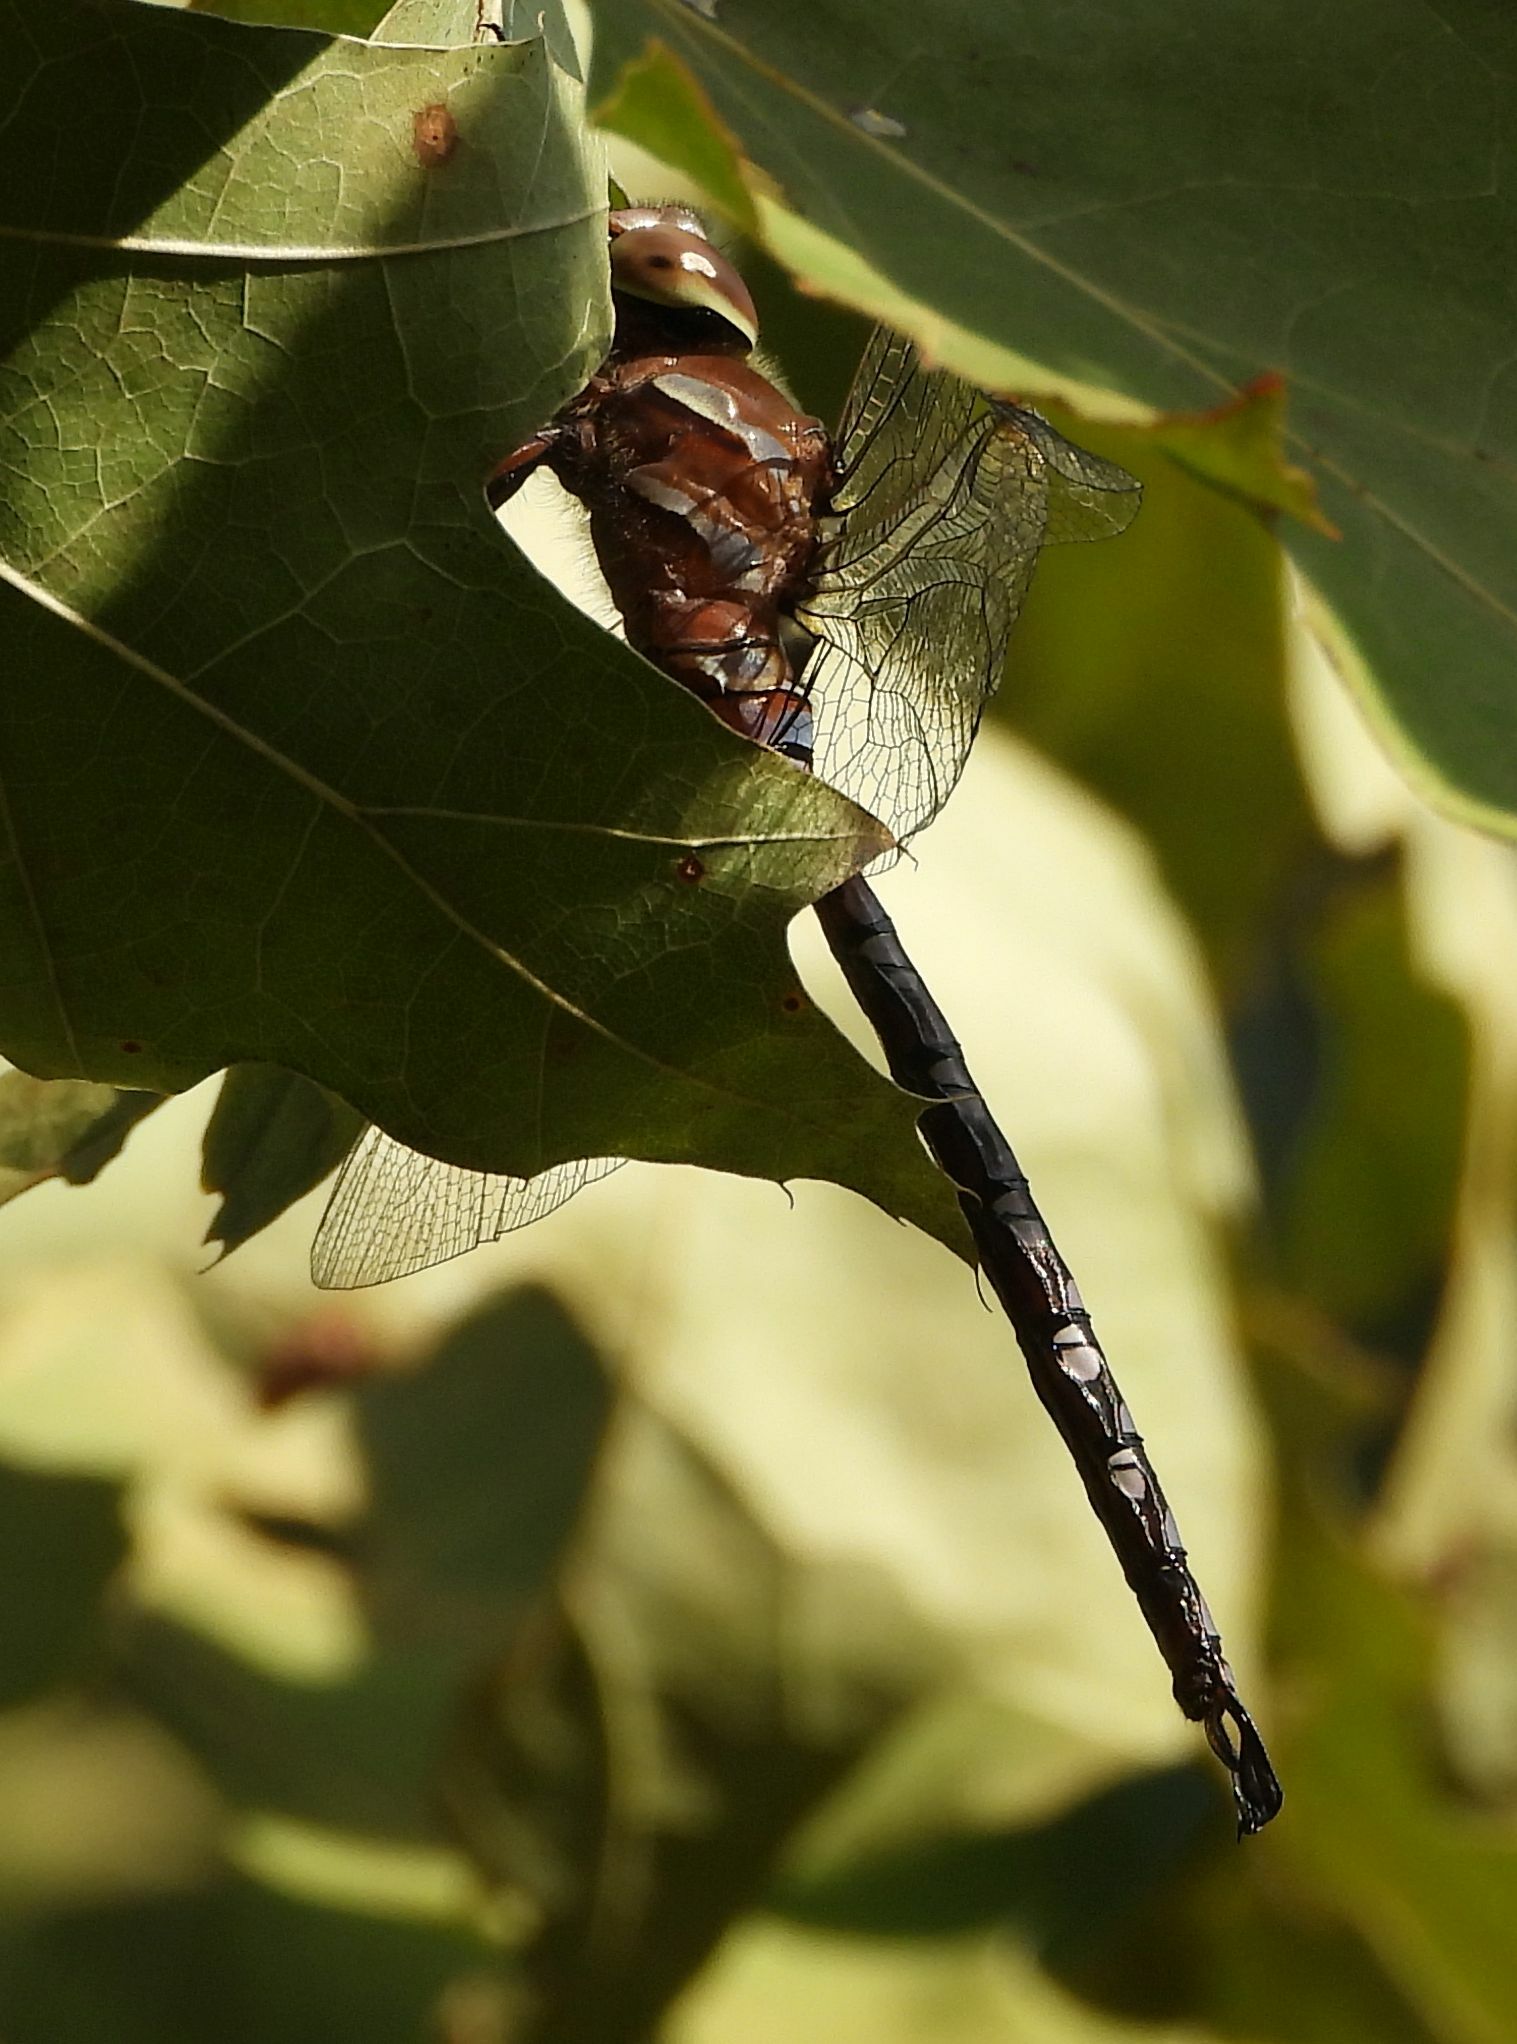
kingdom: Animalia
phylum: Arthropoda
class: Insecta
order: Odonata
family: Aeshnidae
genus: Aeshna
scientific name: Aeshna constricta
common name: Lance-tipped darner
